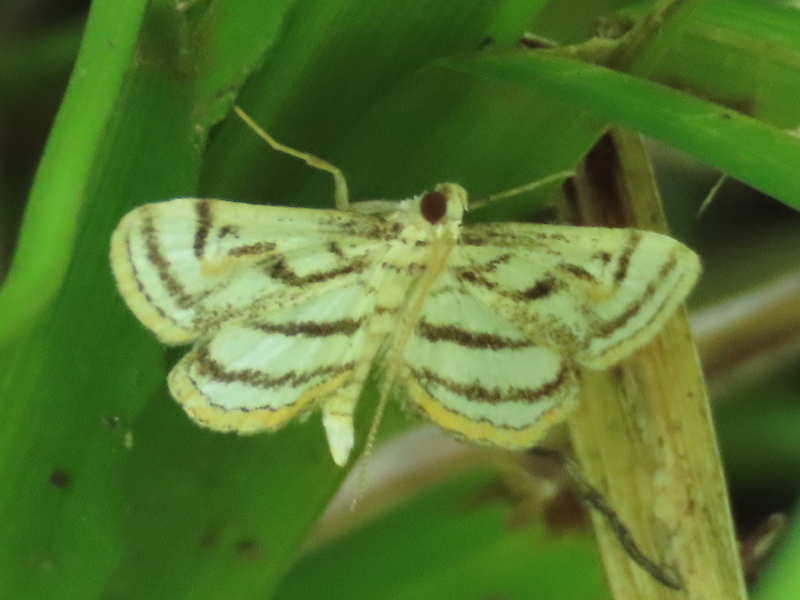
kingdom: Animalia
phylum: Arthropoda
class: Insecta
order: Lepidoptera
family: Crambidae
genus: Parapoynx
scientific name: Parapoynx badiusalis
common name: Chestnut-marked pondweed moth
